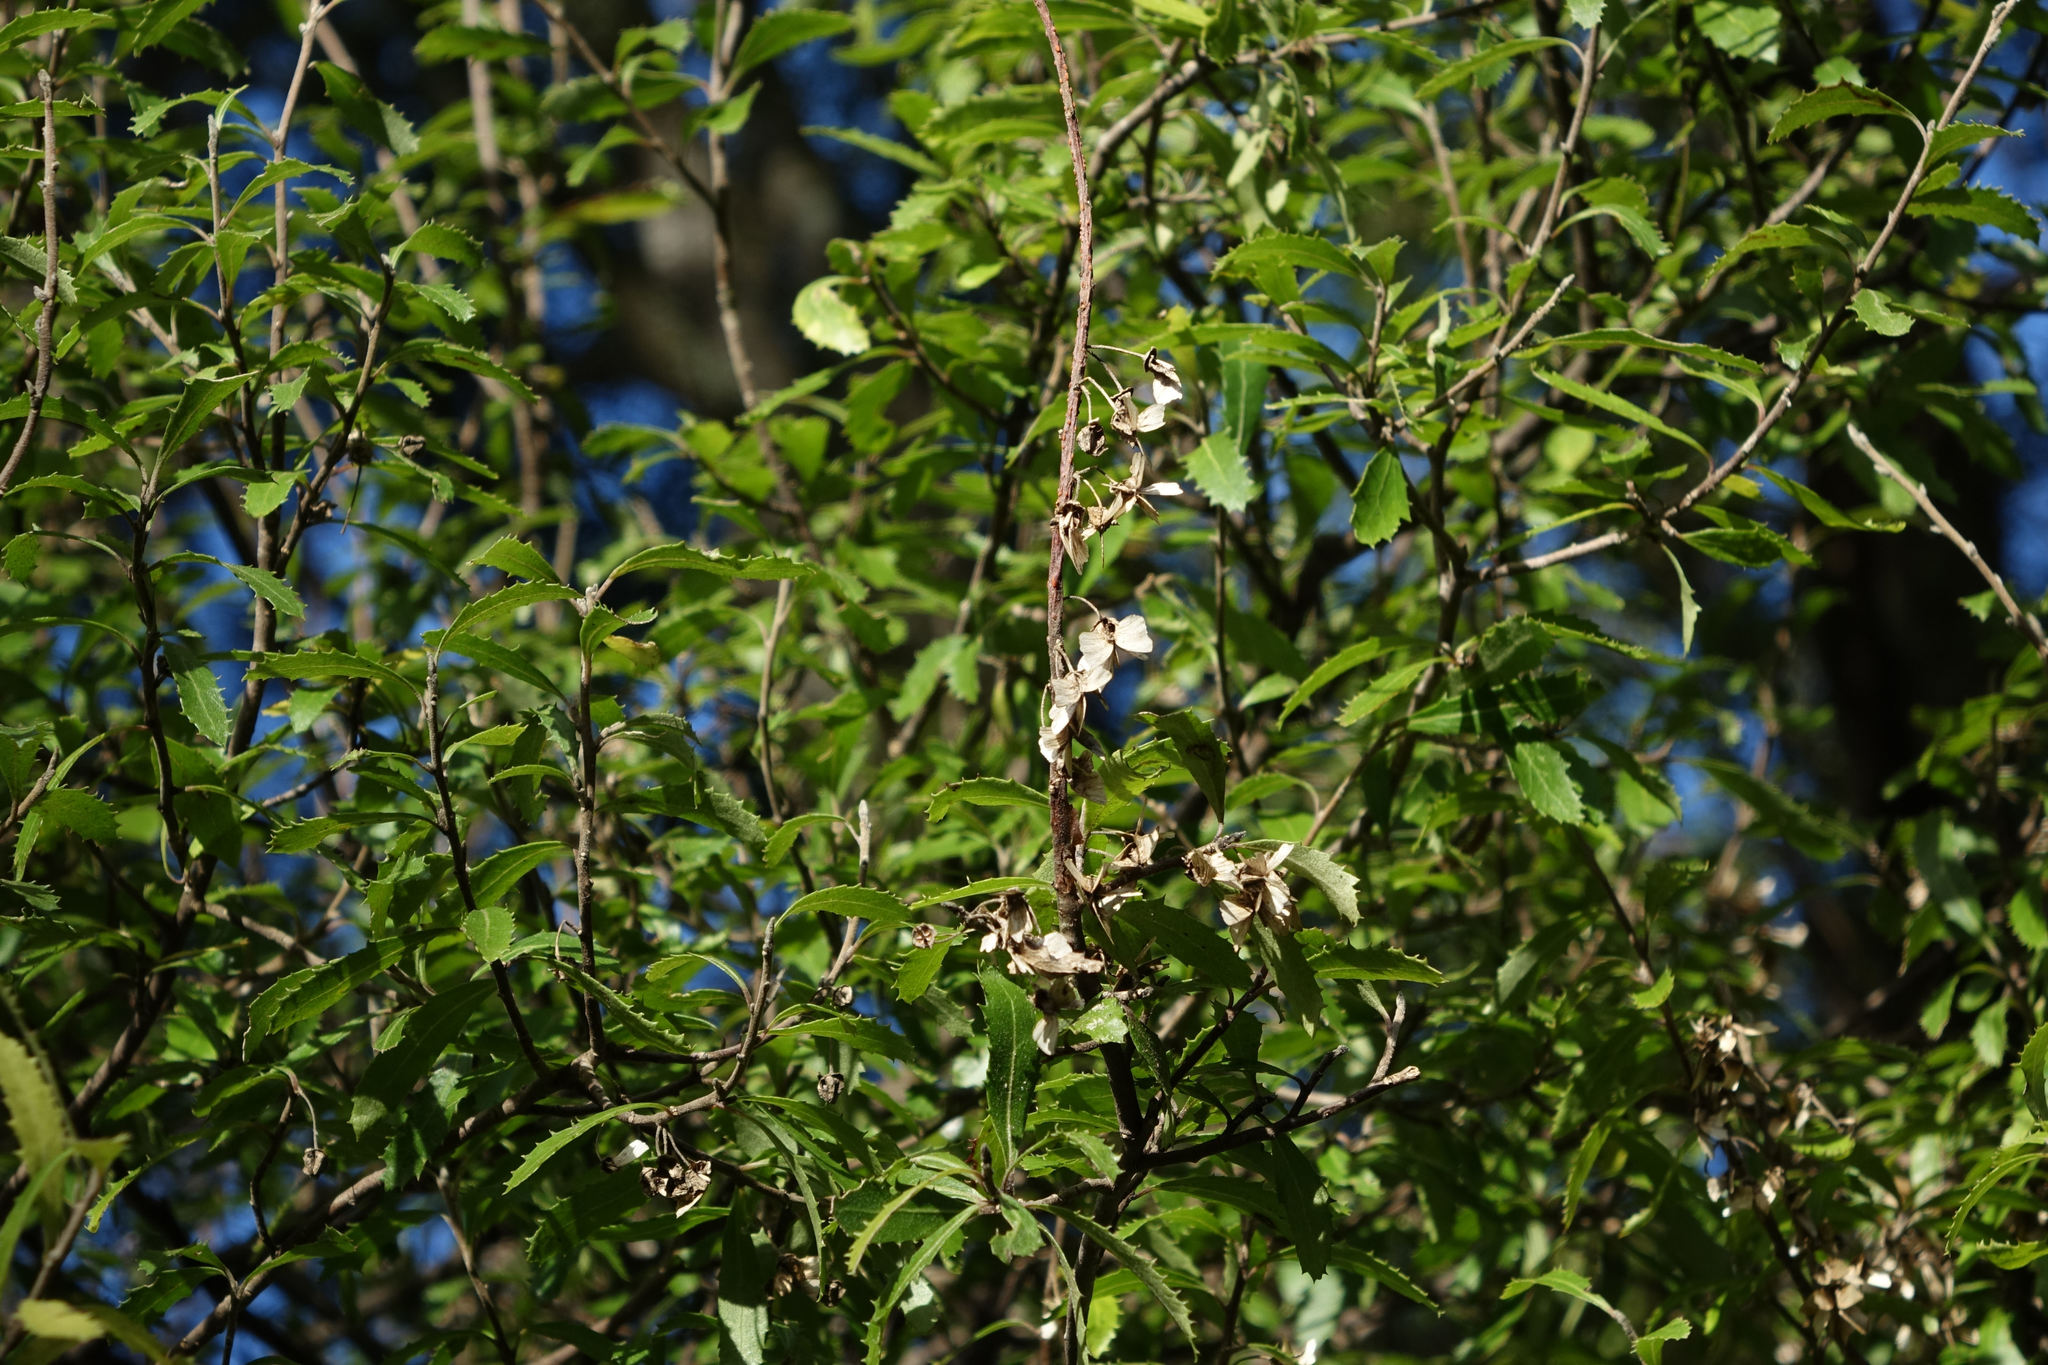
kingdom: Plantae
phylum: Tracheophyta
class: Magnoliopsida
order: Malvales
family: Malvaceae
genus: Hoheria
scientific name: Hoheria angustifolia
